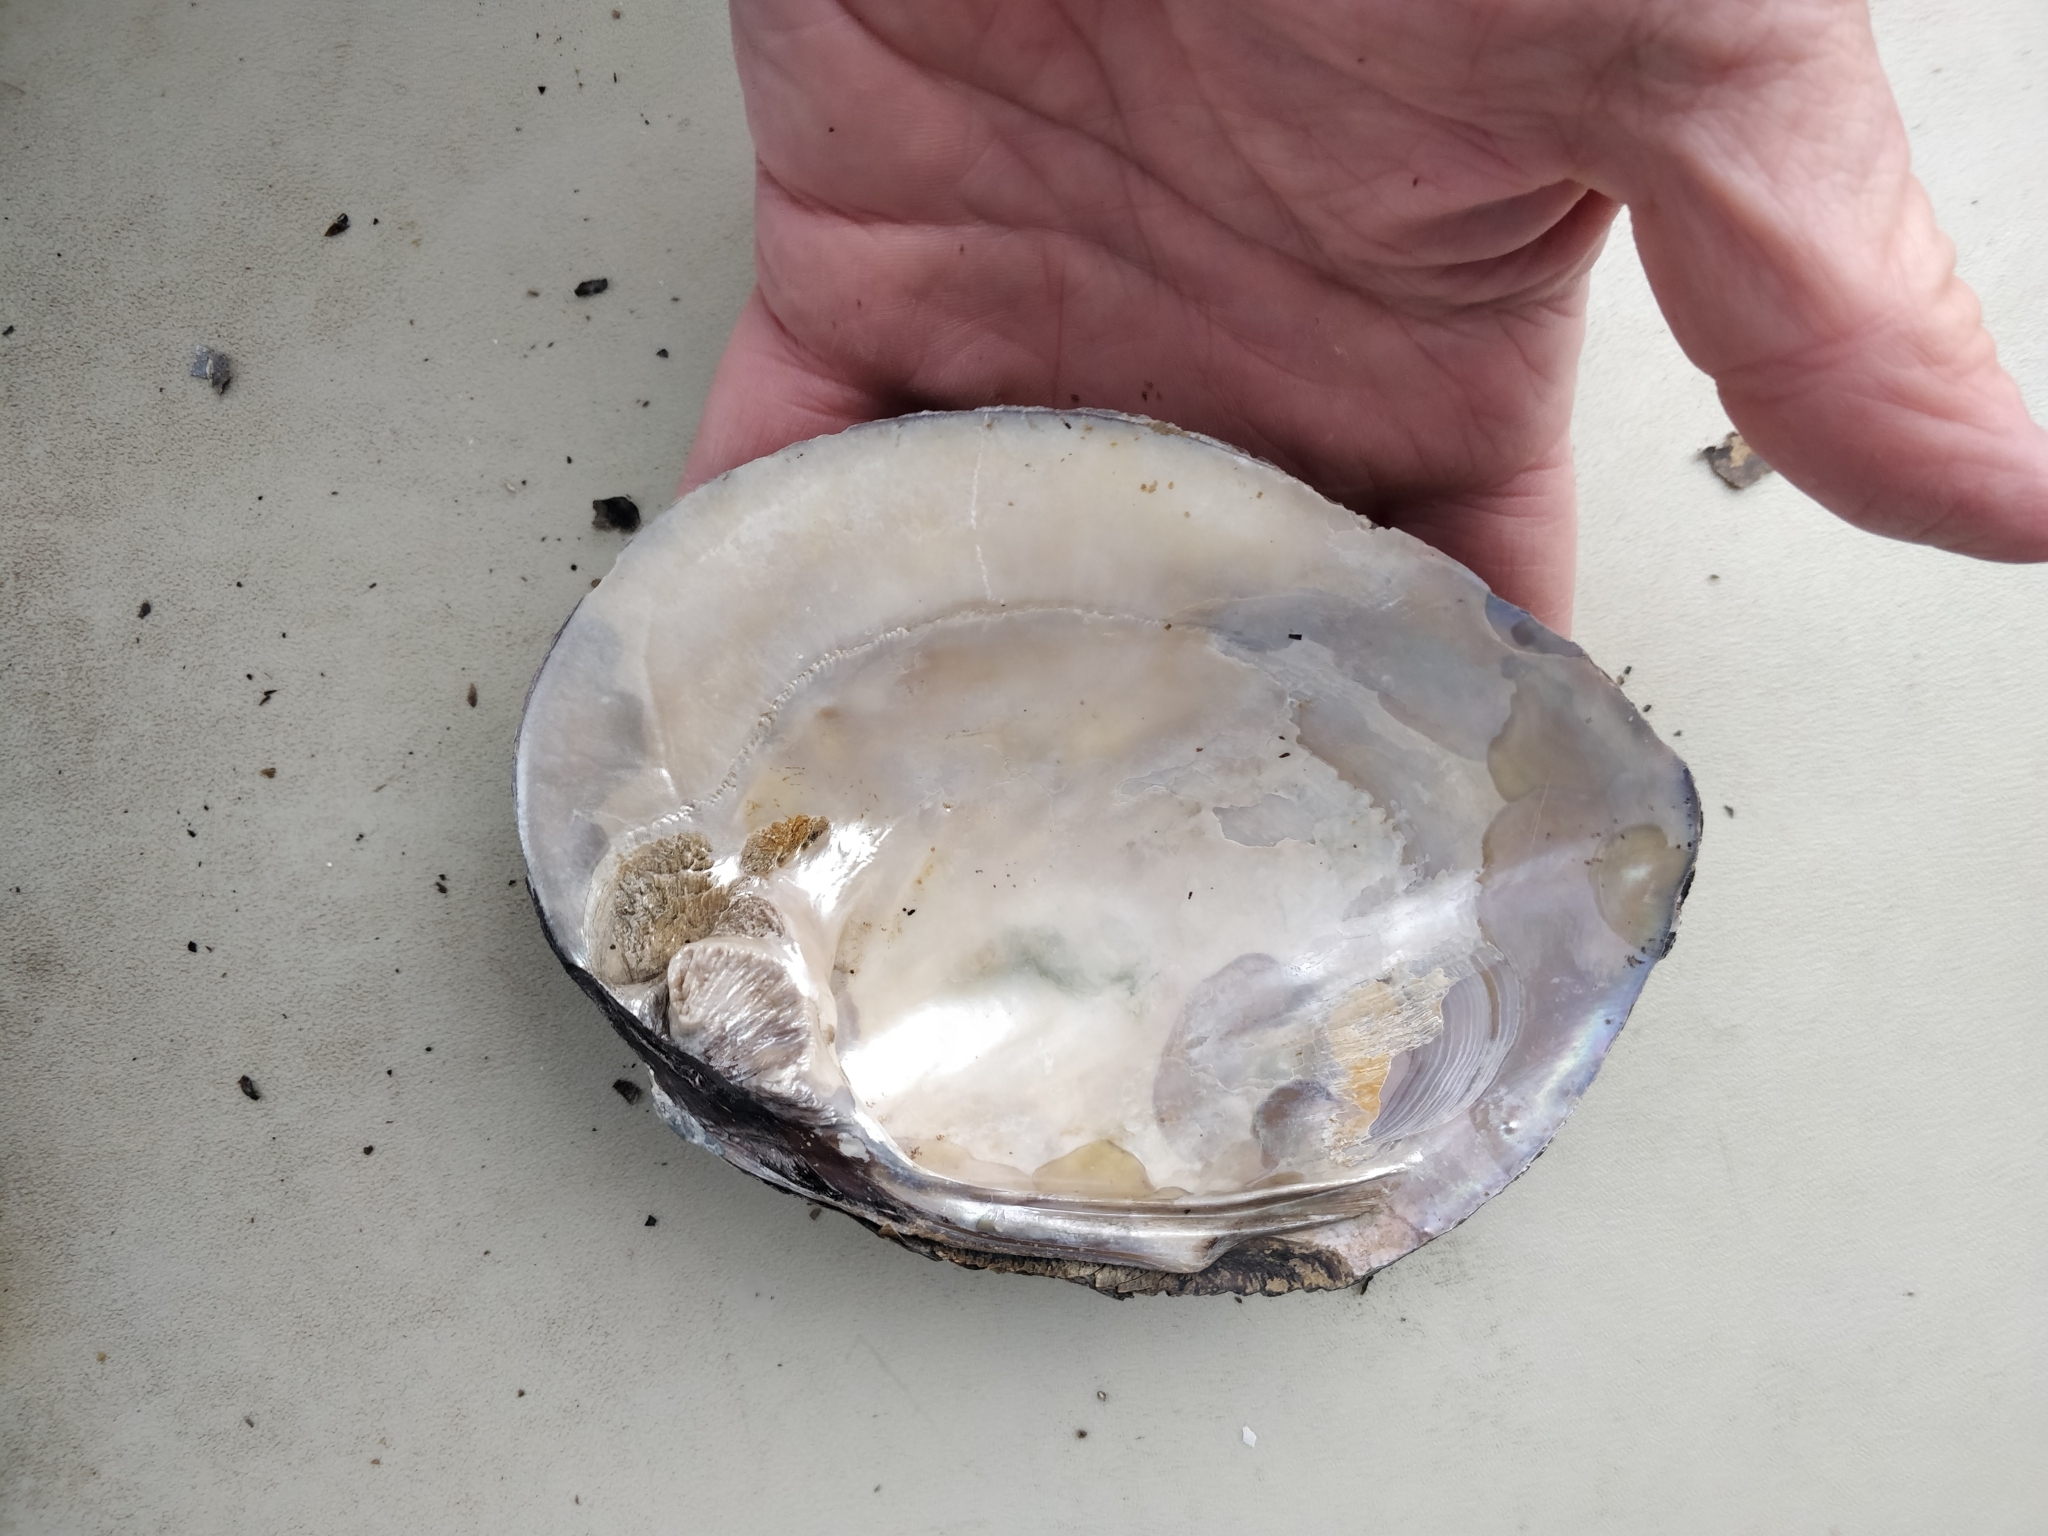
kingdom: Animalia
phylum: Mollusca
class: Bivalvia
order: Unionida
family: Unionidae
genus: Amblema
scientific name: Amblema plicata
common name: Threeridge
